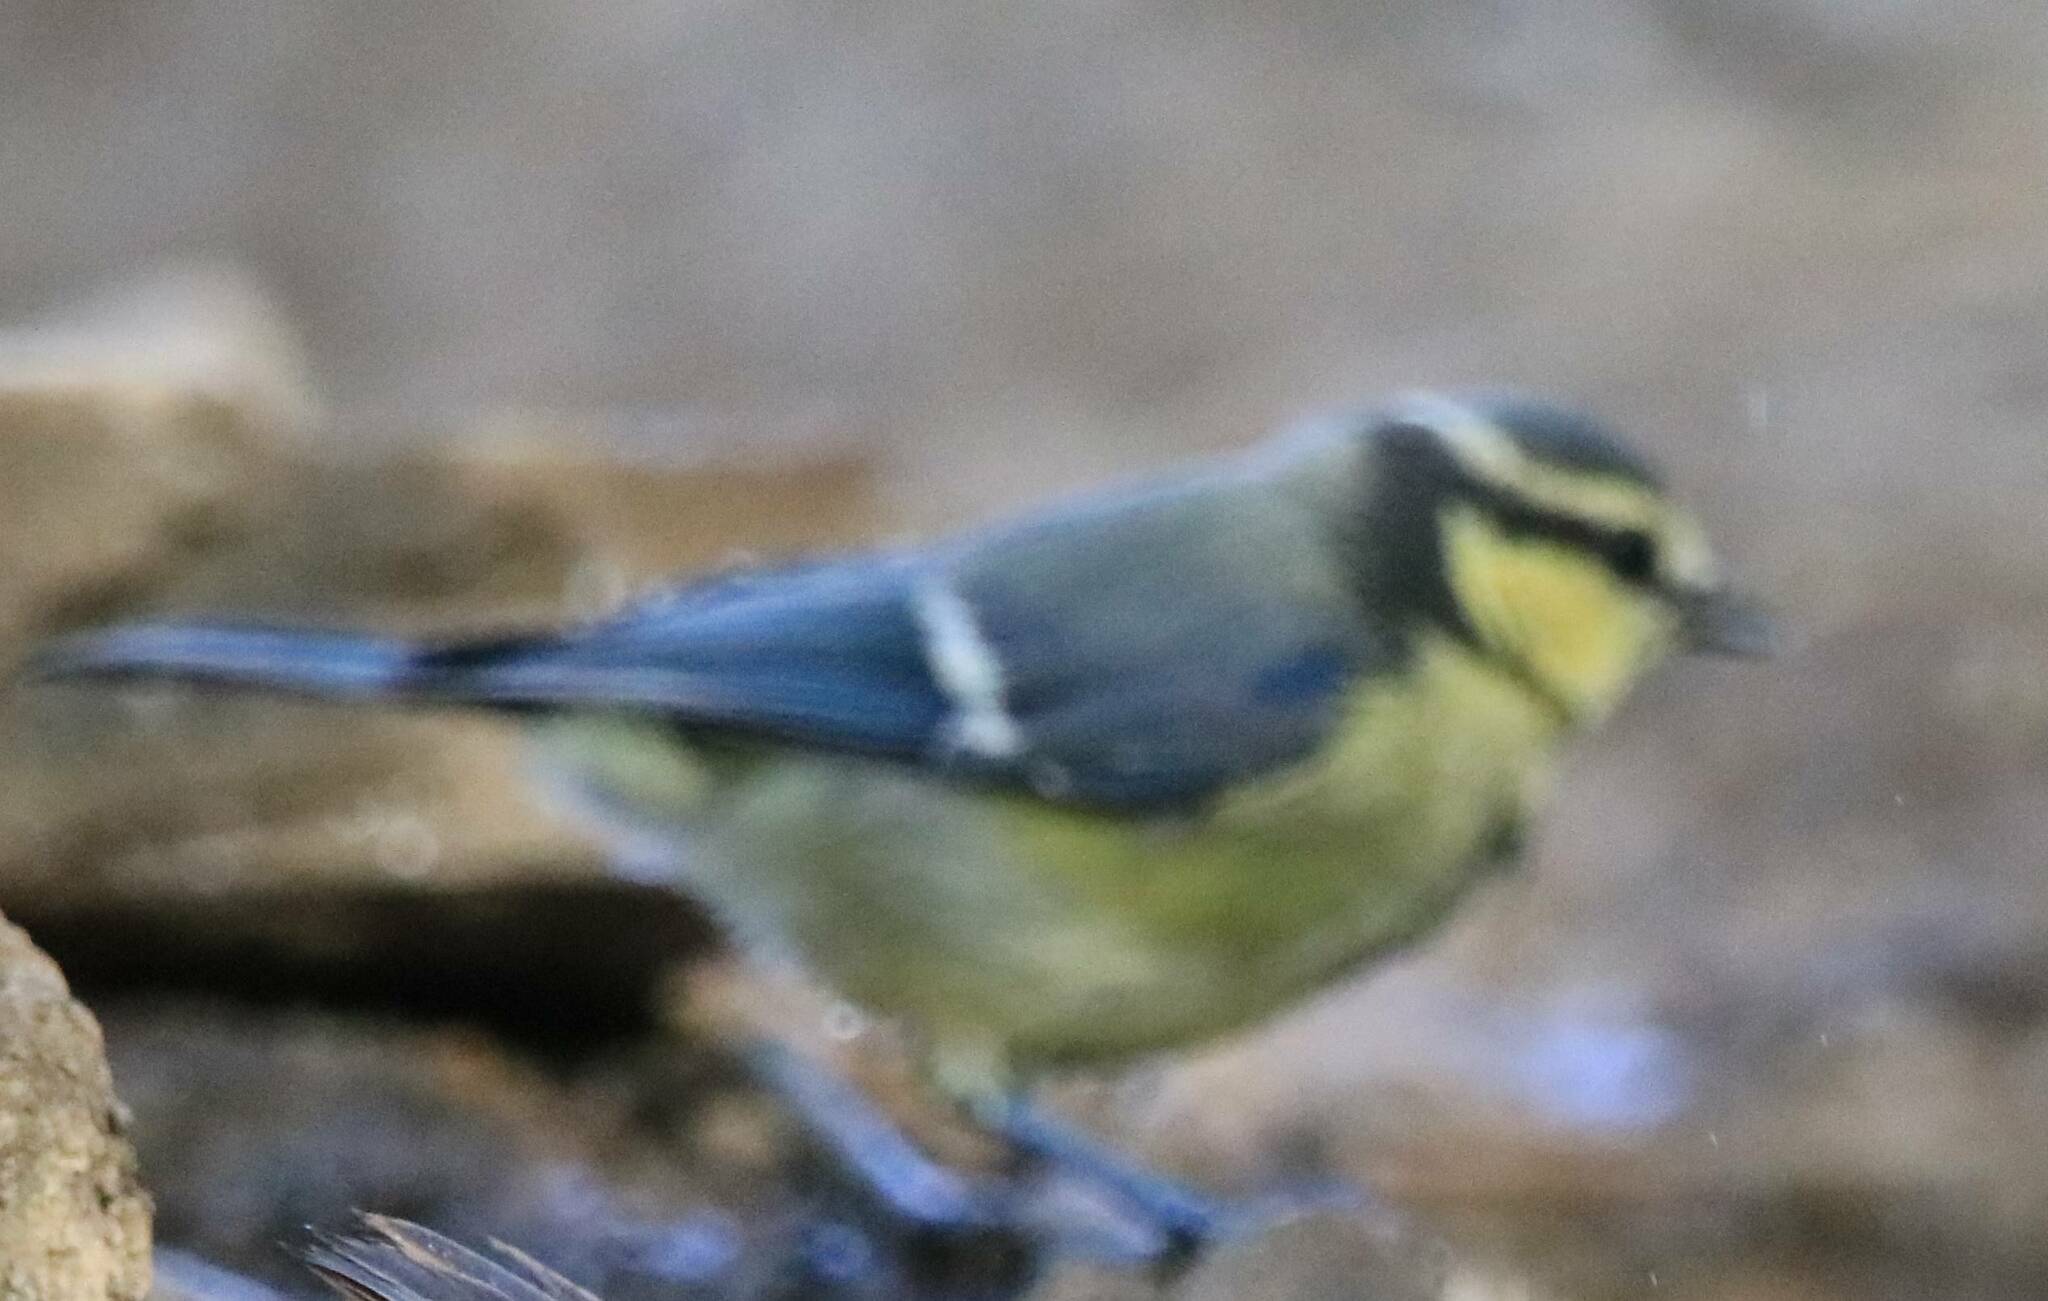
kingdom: Animalia
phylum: Chordata
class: Aves
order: Passeriformes
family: Paridae
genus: Cyanistes
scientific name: Cyanistes teneriffae
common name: African blue tit
